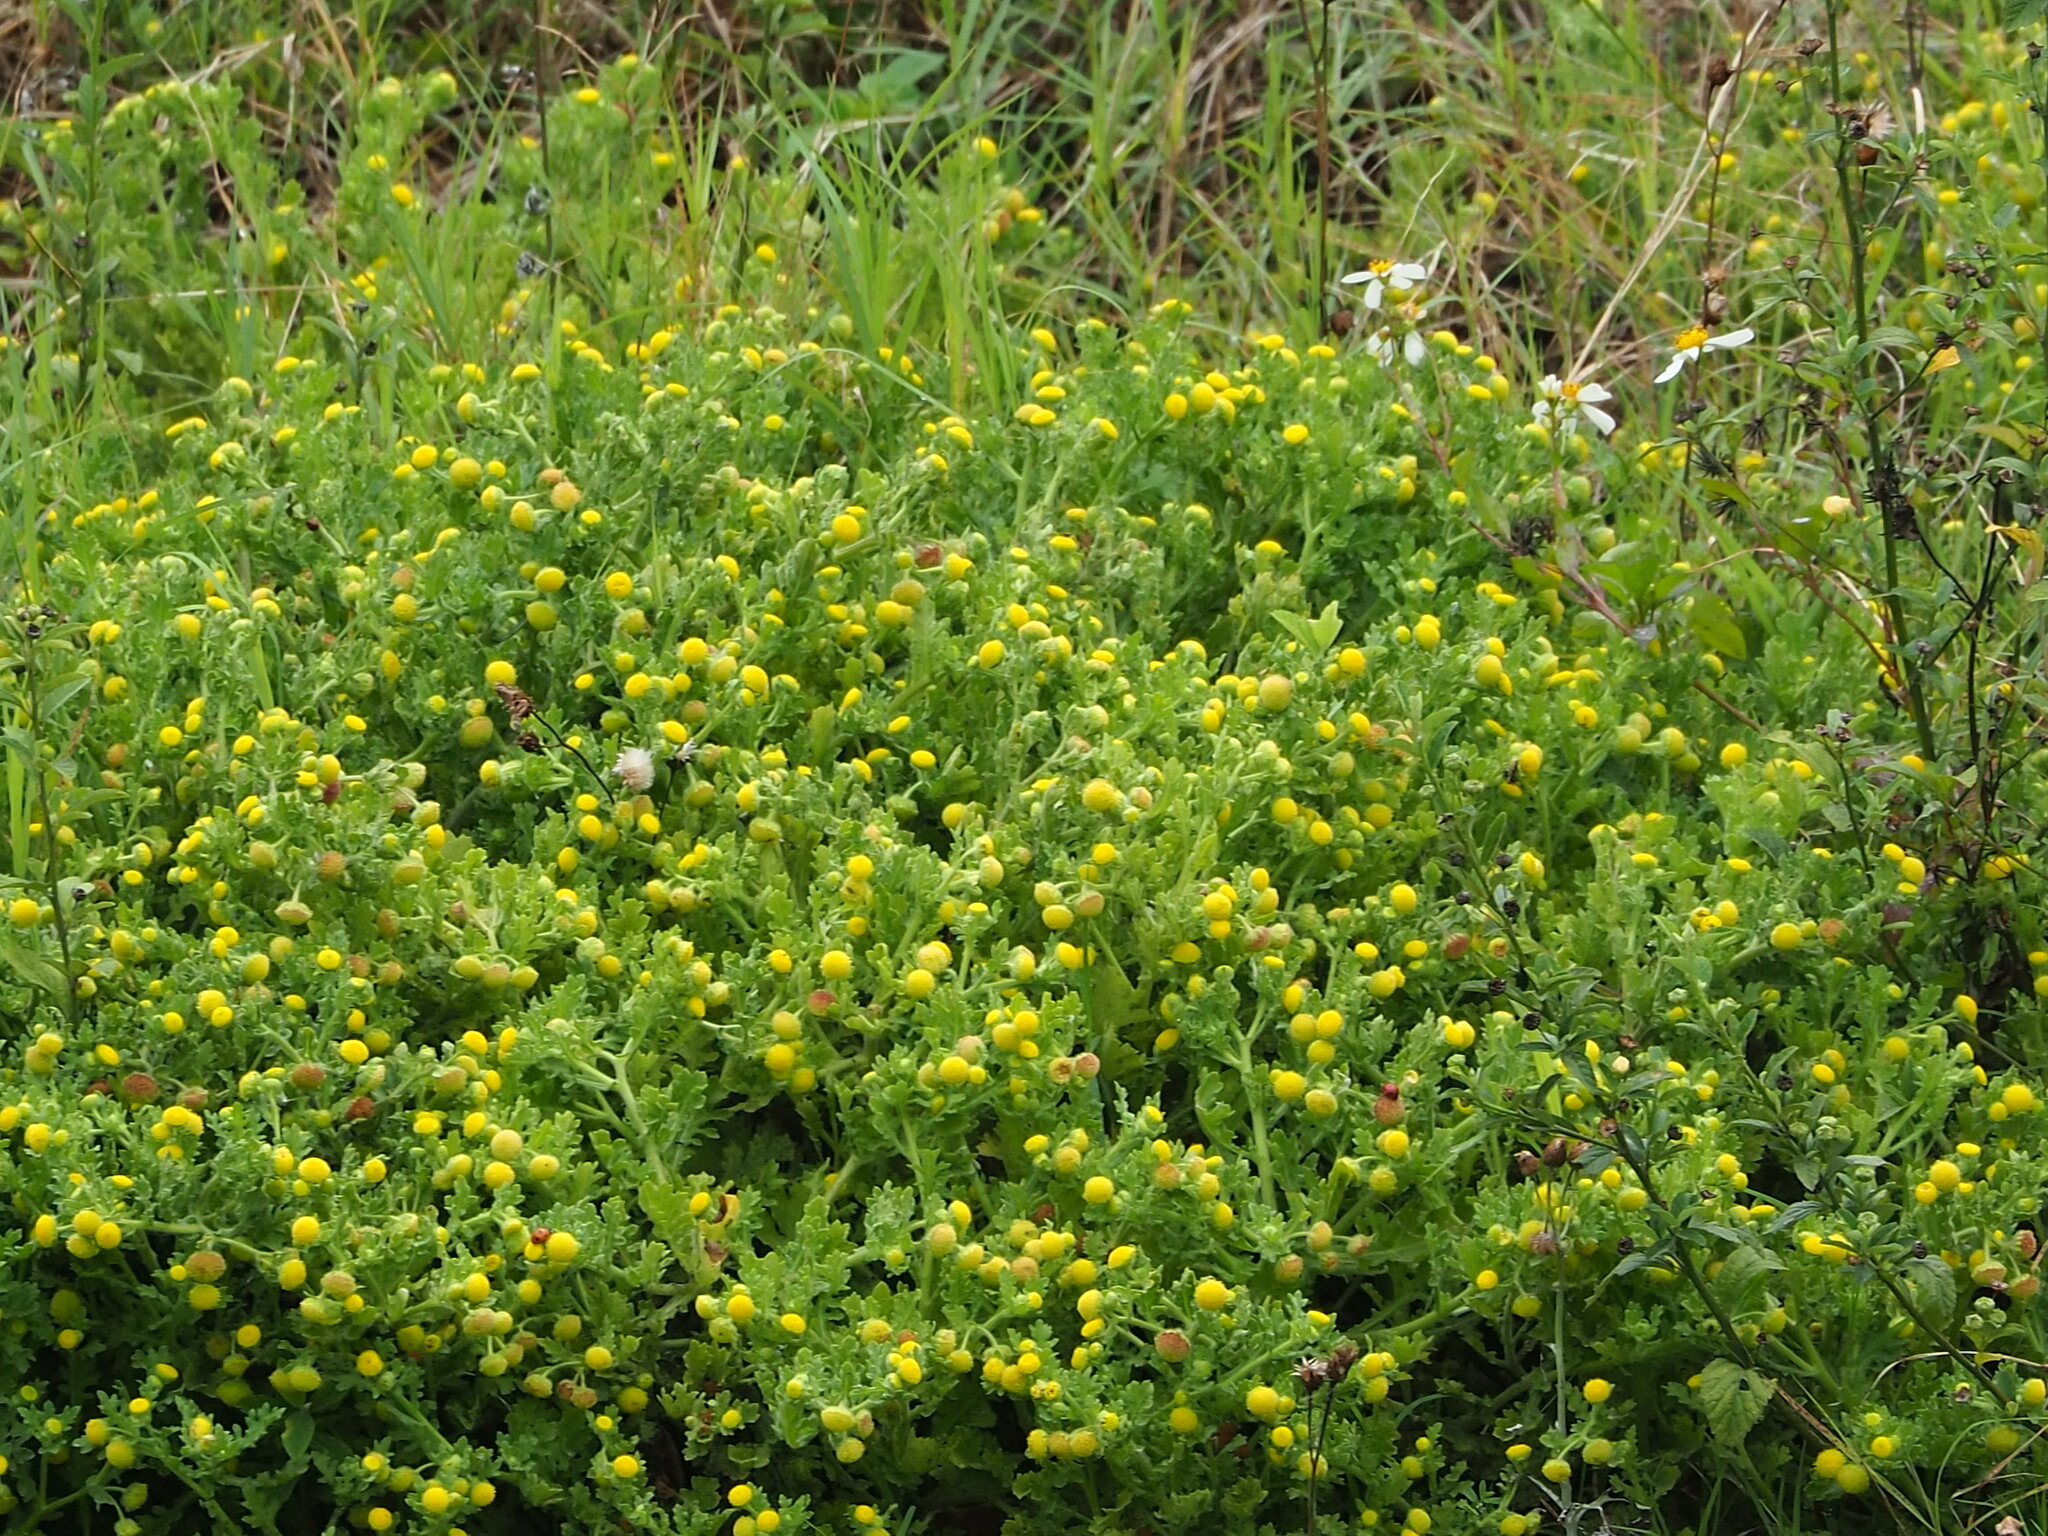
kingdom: Plantae
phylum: Tracheophyta
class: Magnoliopsida
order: Asterales
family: Asteraceae
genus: Grangea
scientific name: Grangea maderaspatana
